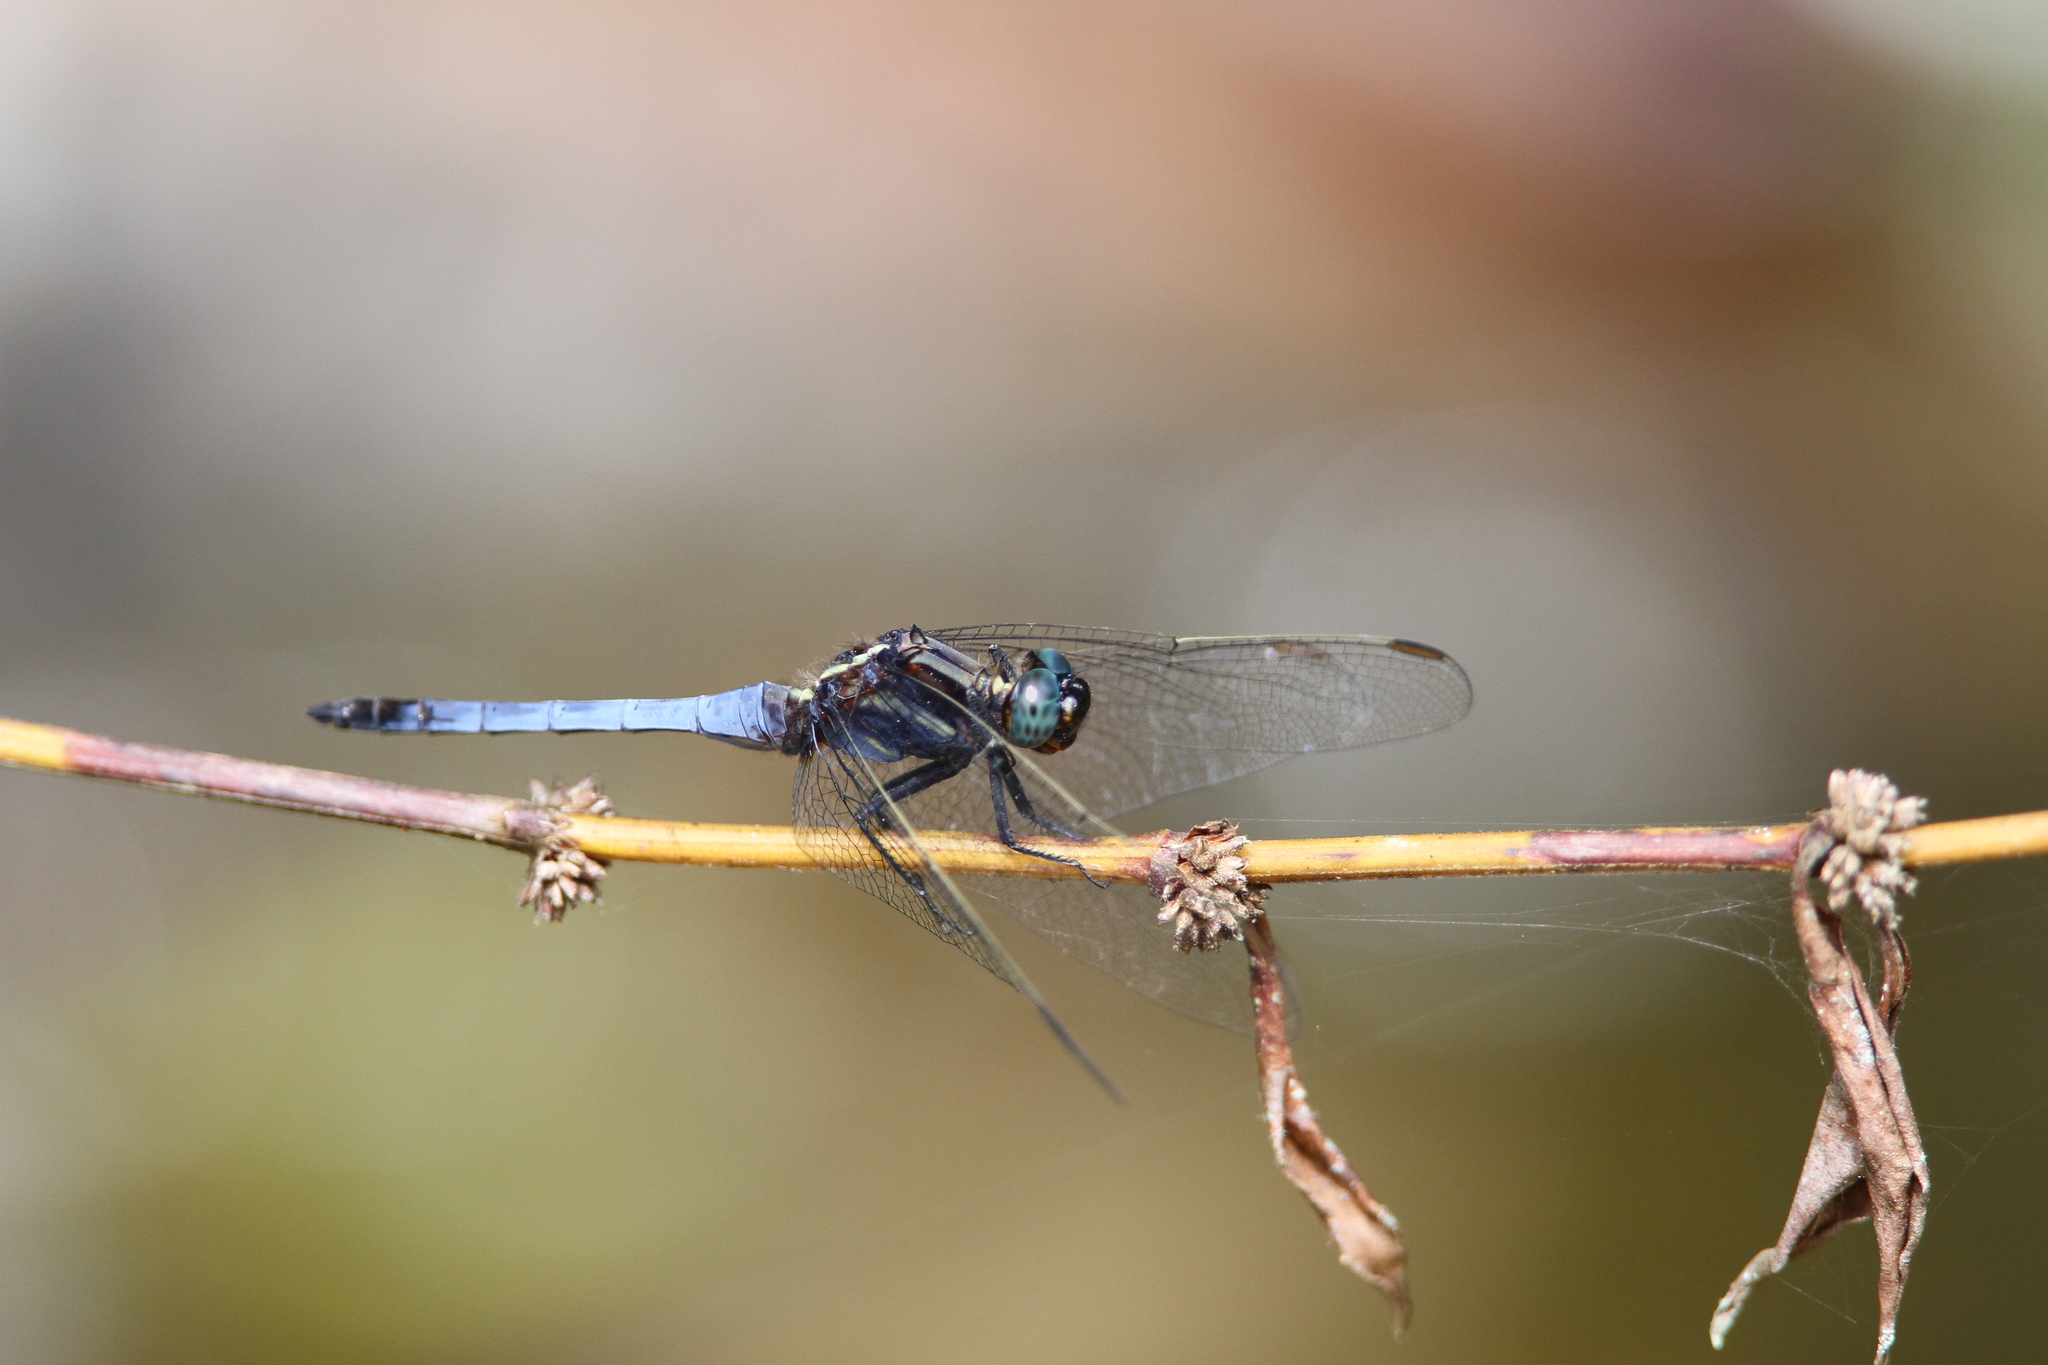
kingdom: Animalia
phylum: Arthropoda
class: Insecta
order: Odonata
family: Libellulidae
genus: Orthetrum
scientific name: Orthetrum glaucum
